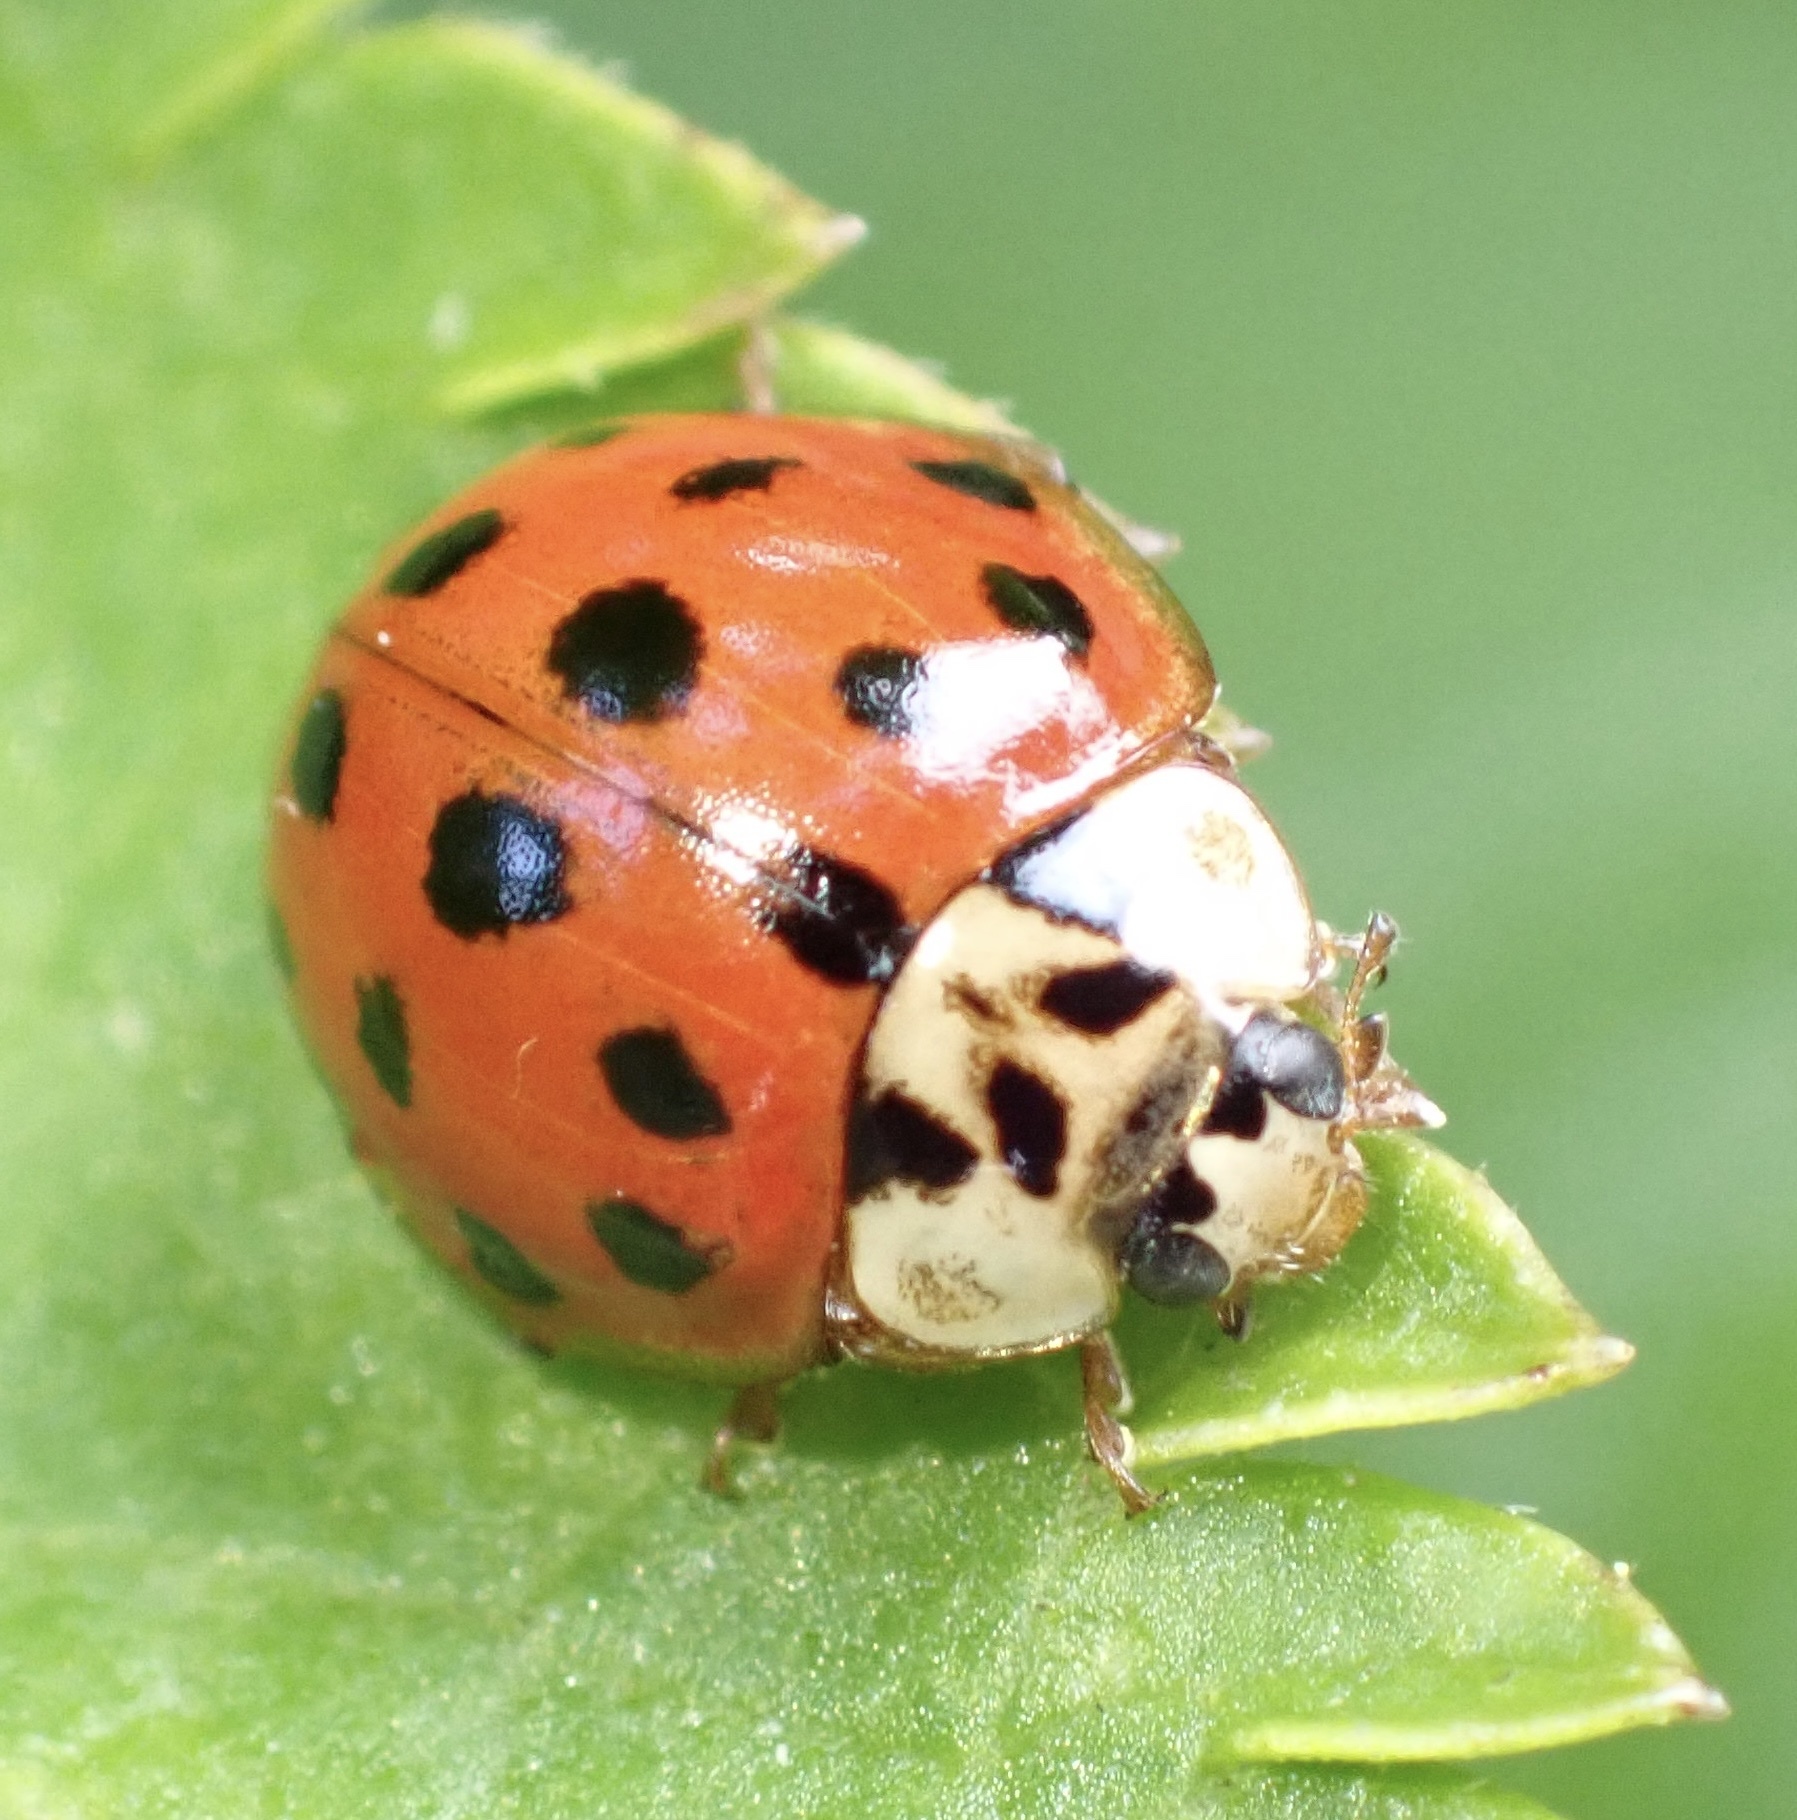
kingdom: Animalia
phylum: Arthropoda
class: Insecta
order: Coleoptera
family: Coccinellidae
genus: Harmonia
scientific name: Harmonia axyridis
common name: Harlequin ladybird
